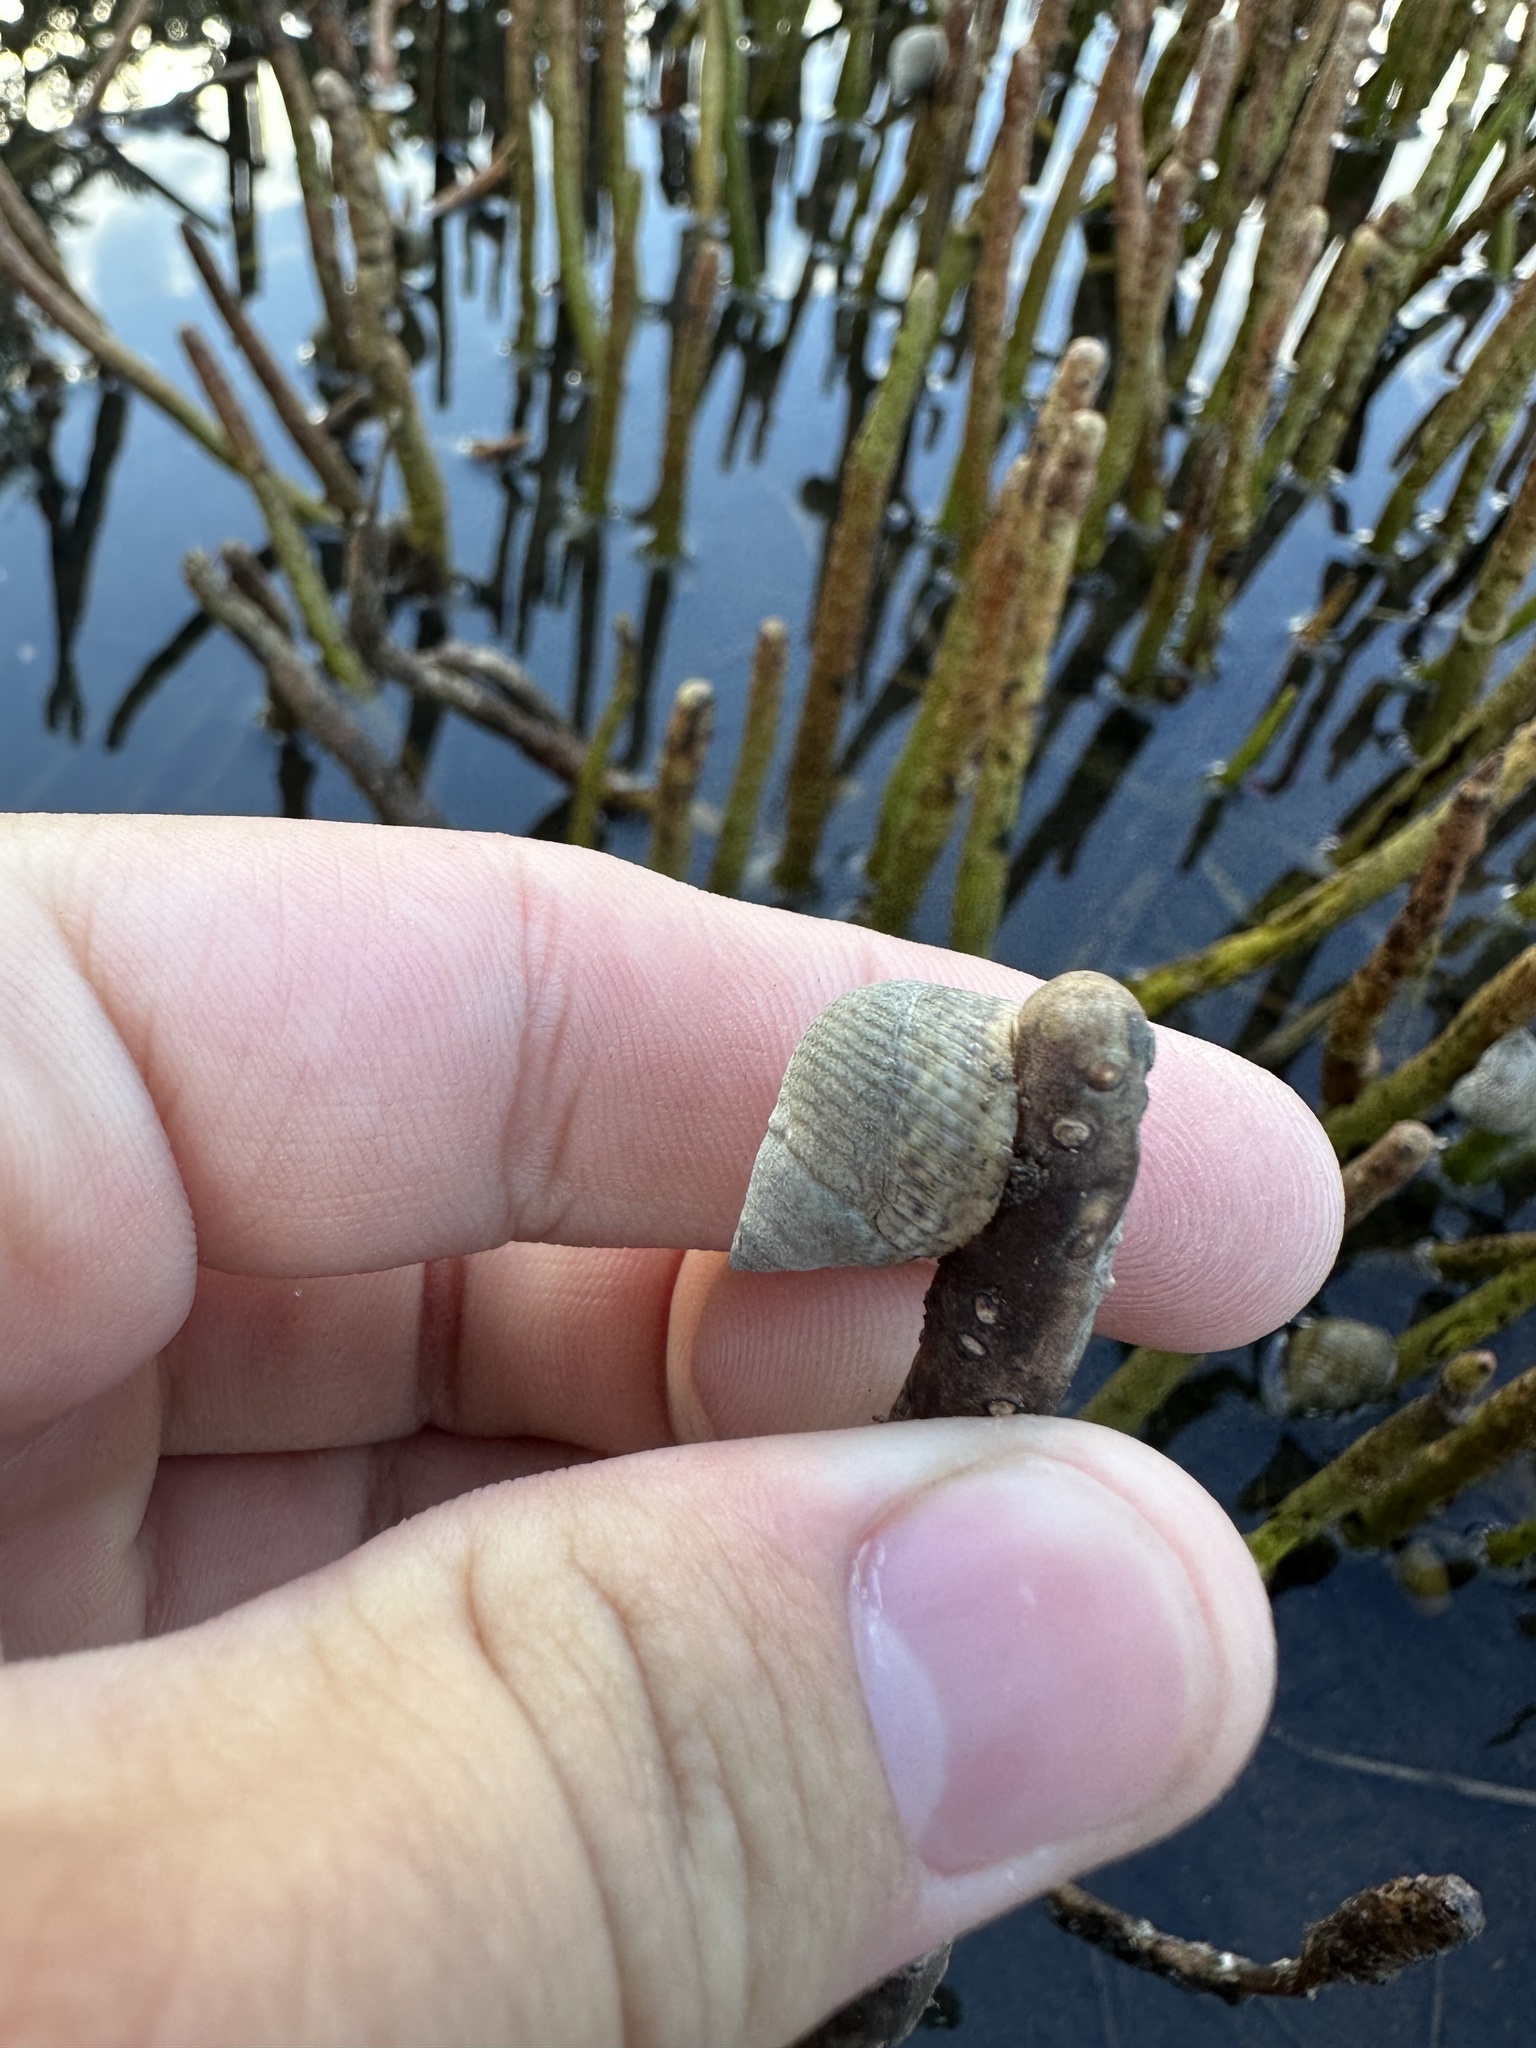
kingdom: Animalia
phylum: Mollusca
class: Gastropoda
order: Littorinimorpha
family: Littorinidae
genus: Littoraria
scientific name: Littoraria irrorata
